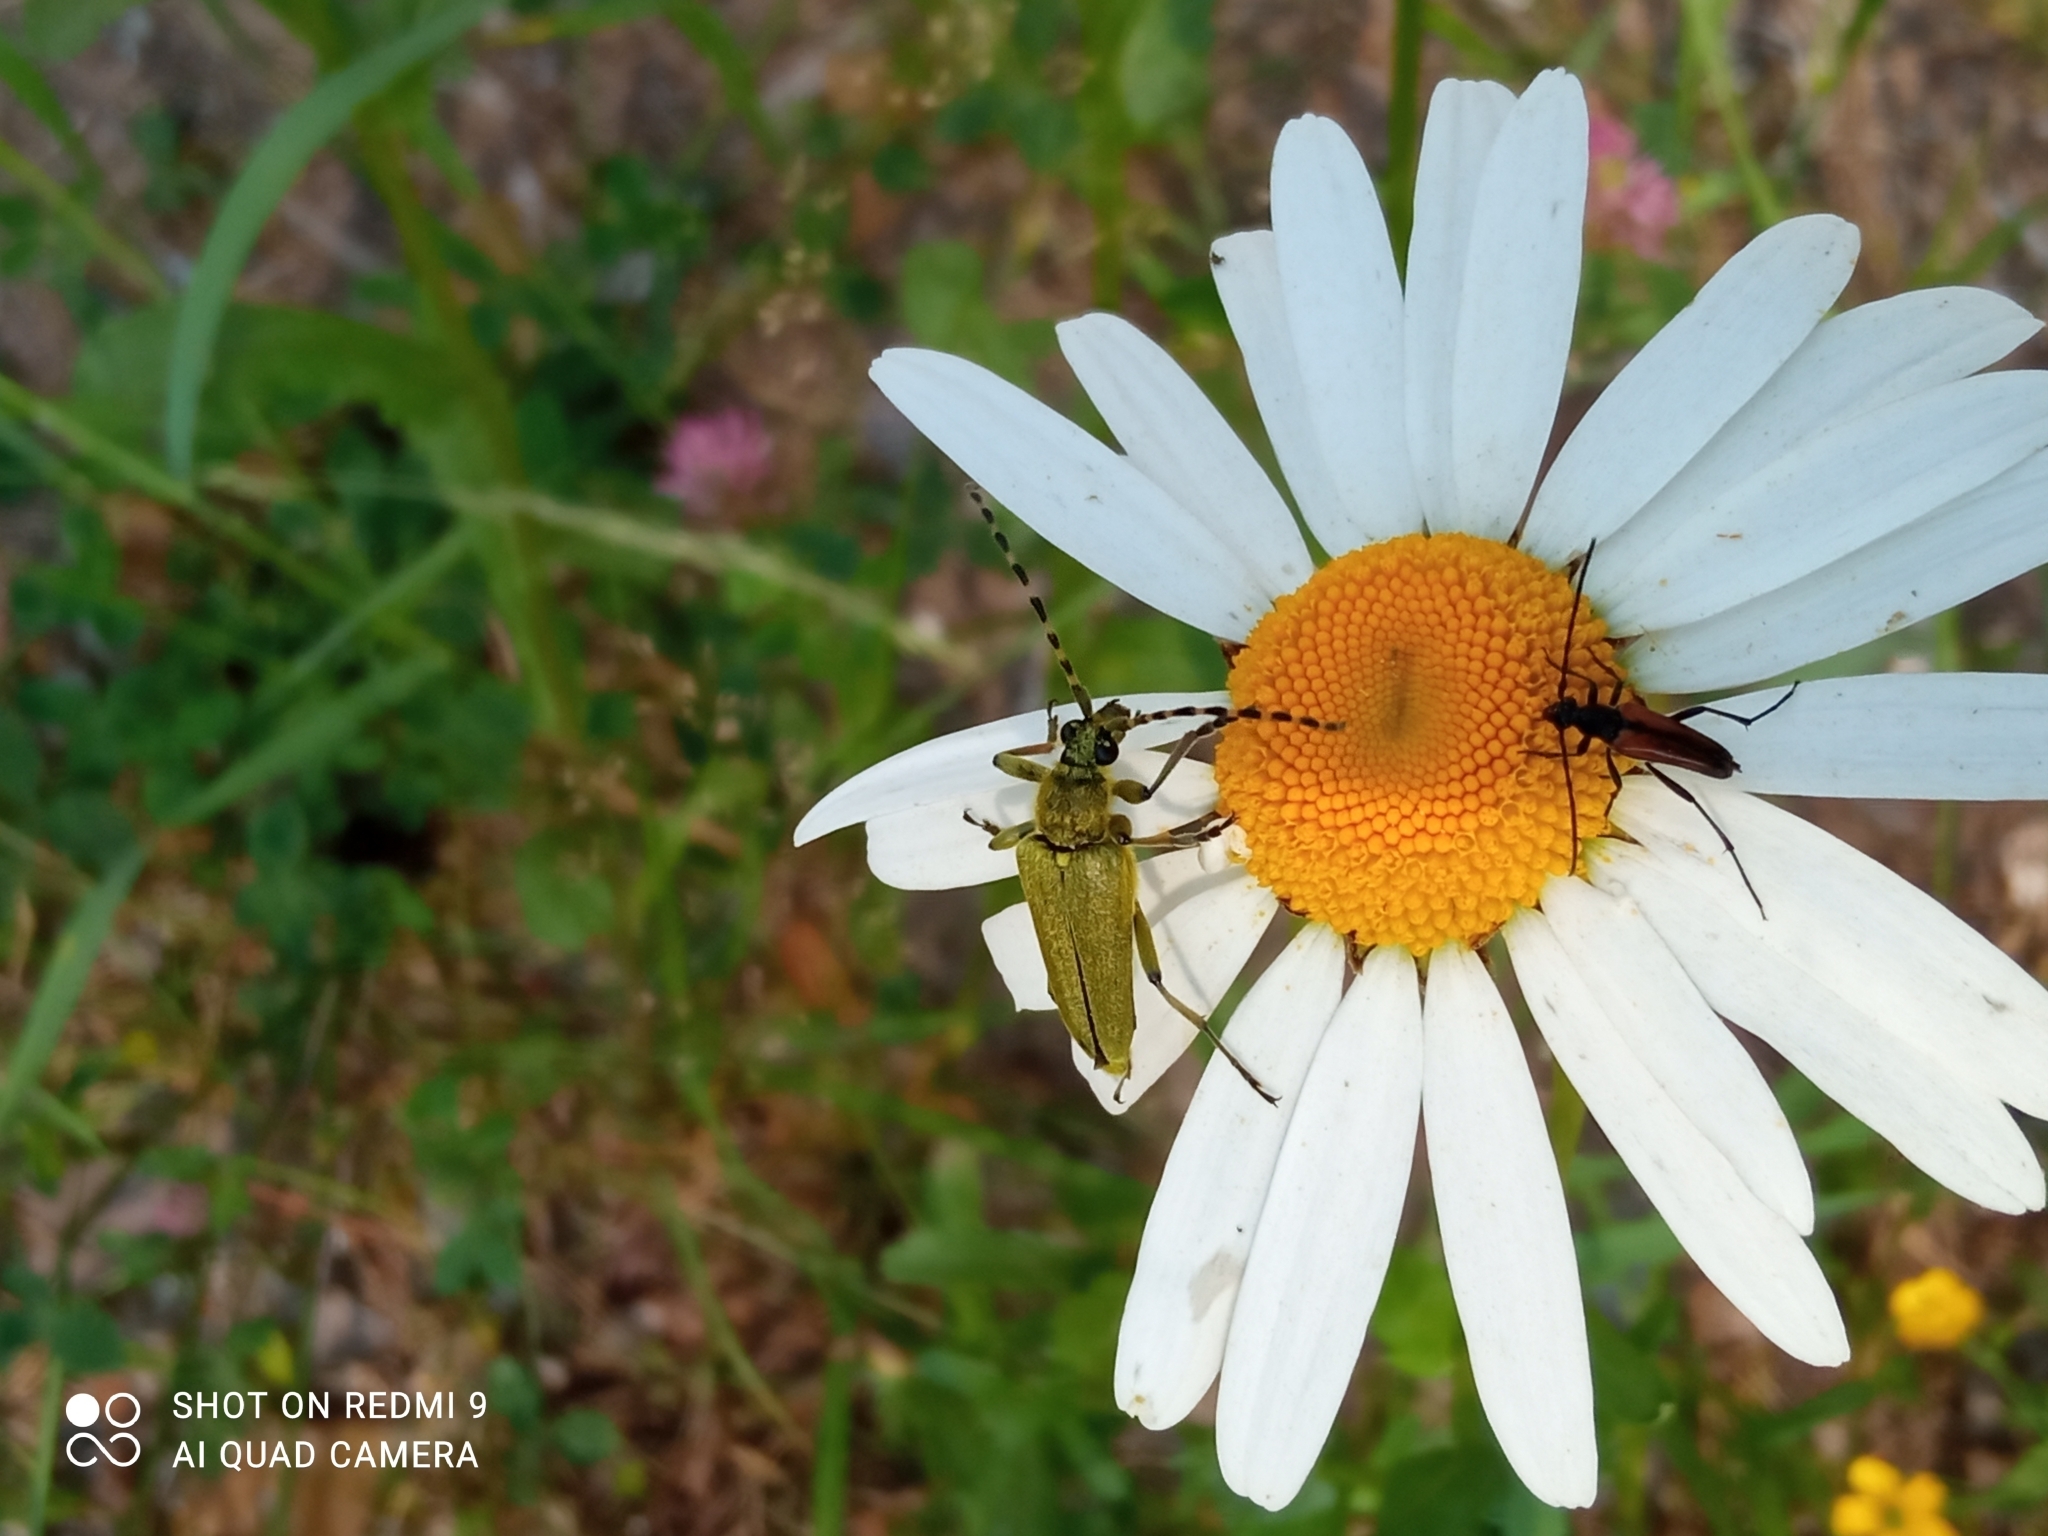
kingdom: Animalia
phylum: Arthropoda
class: Insecta
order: Coleoptera
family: Cerambycidae
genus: Lepturobosca
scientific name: Lepturobosca virens
